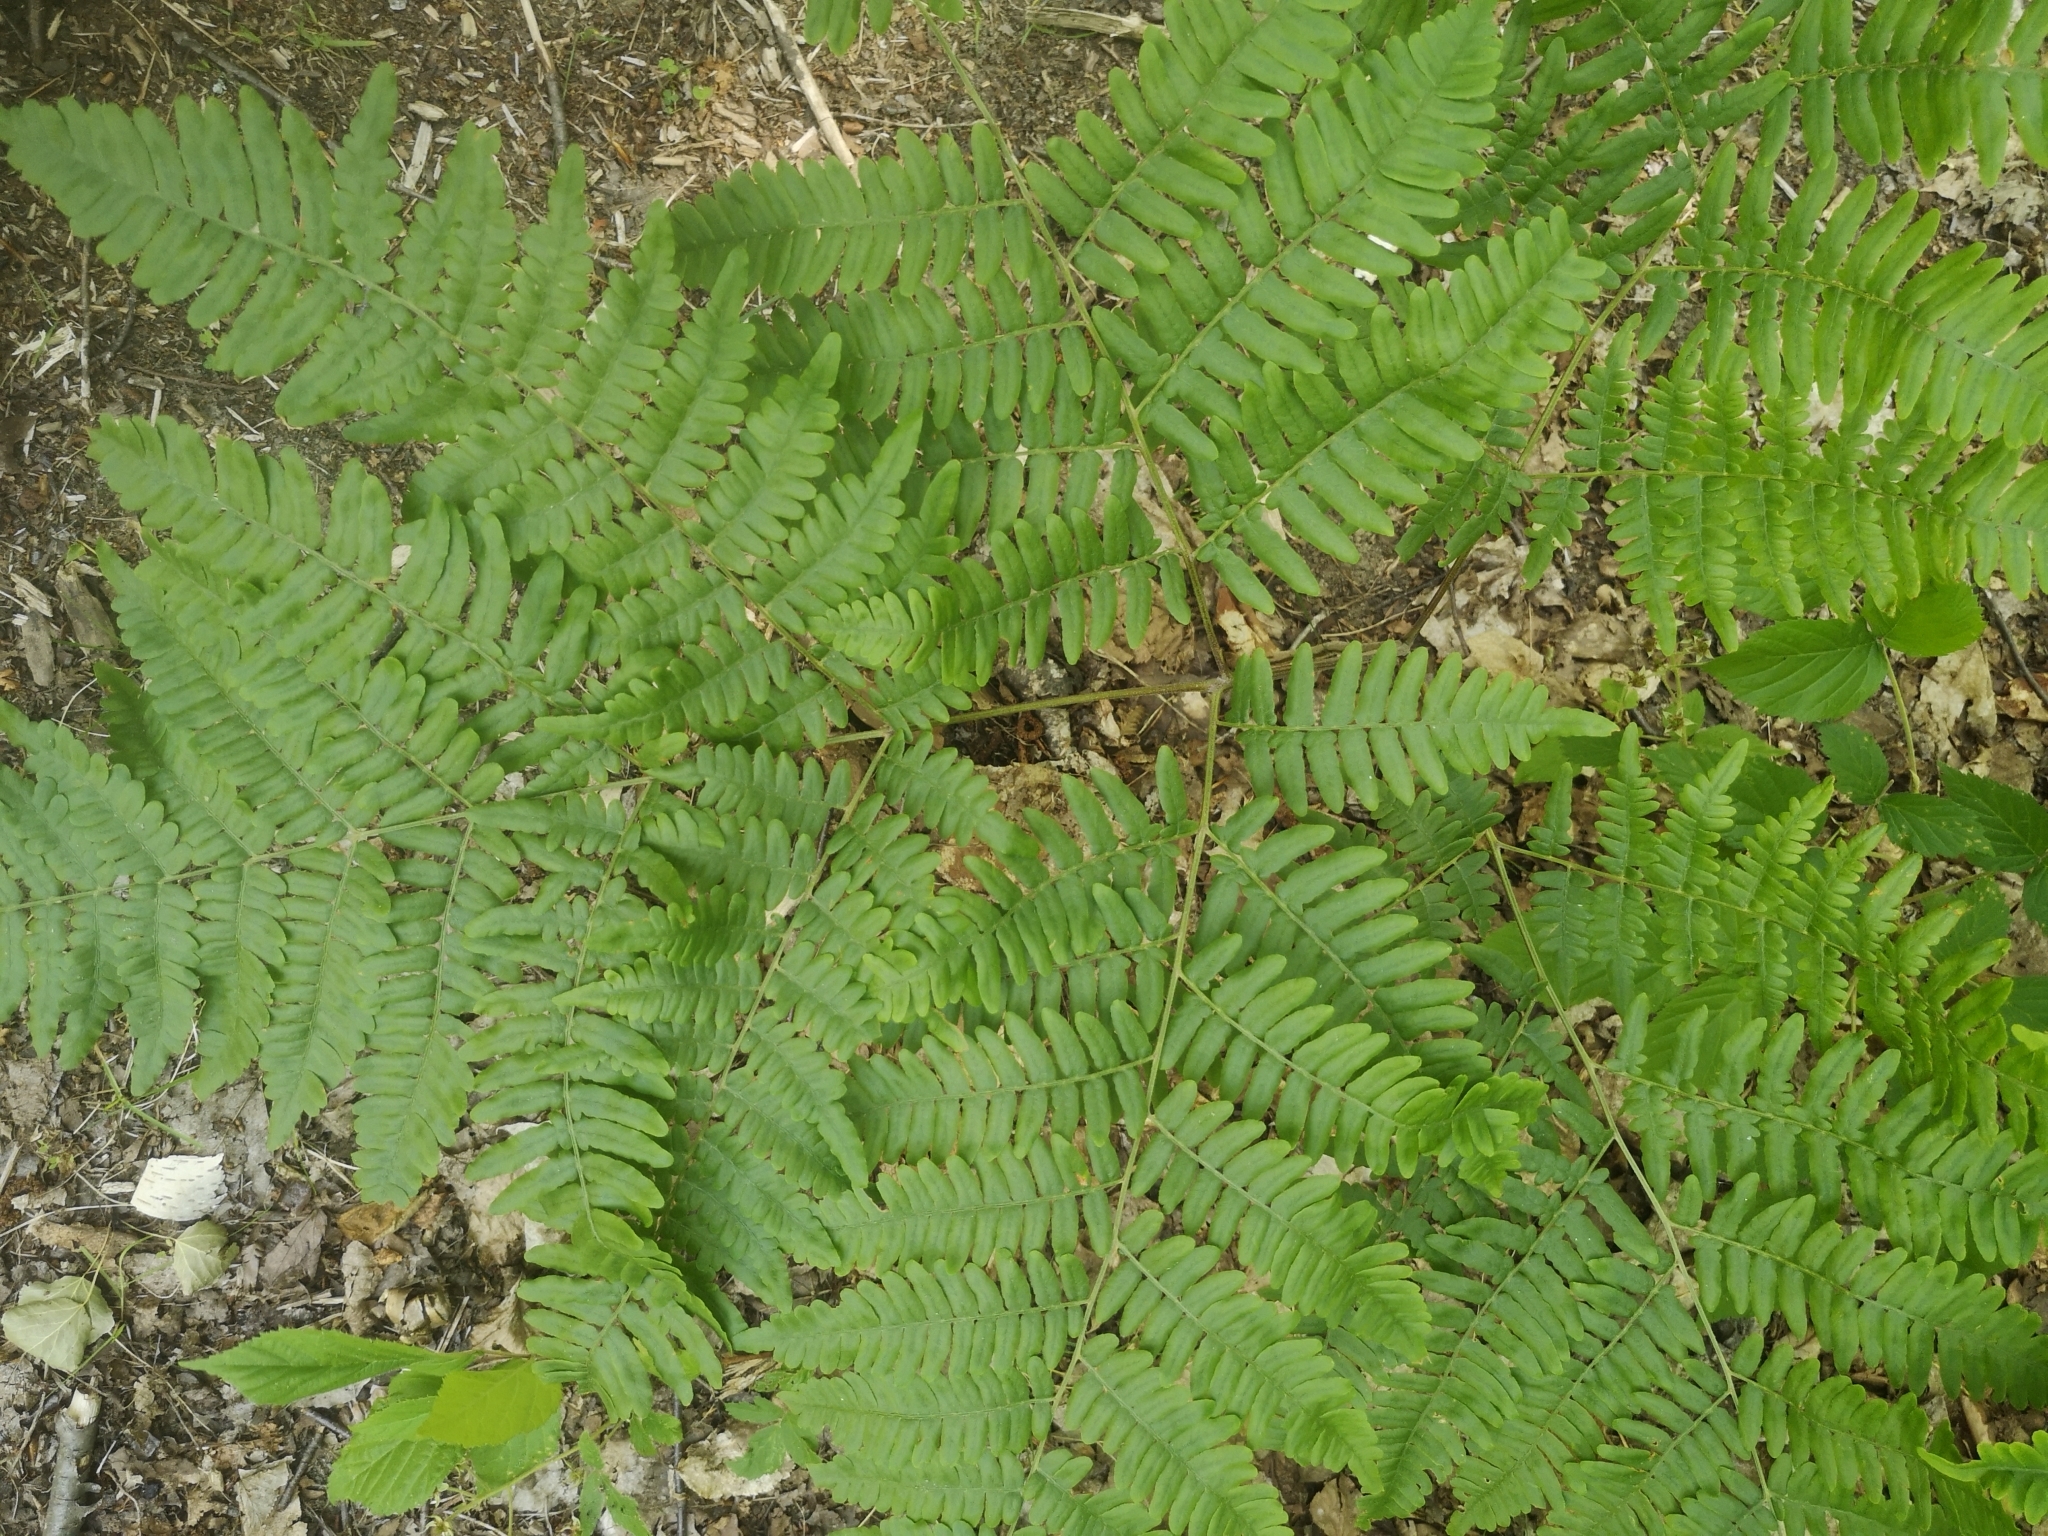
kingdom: Plantae
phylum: Tracheophyta
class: Polypodiopsida
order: Polypodiales
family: Dennstaedtiaceae
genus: Pteridium
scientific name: Pteridium aquilinum
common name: Bracken
